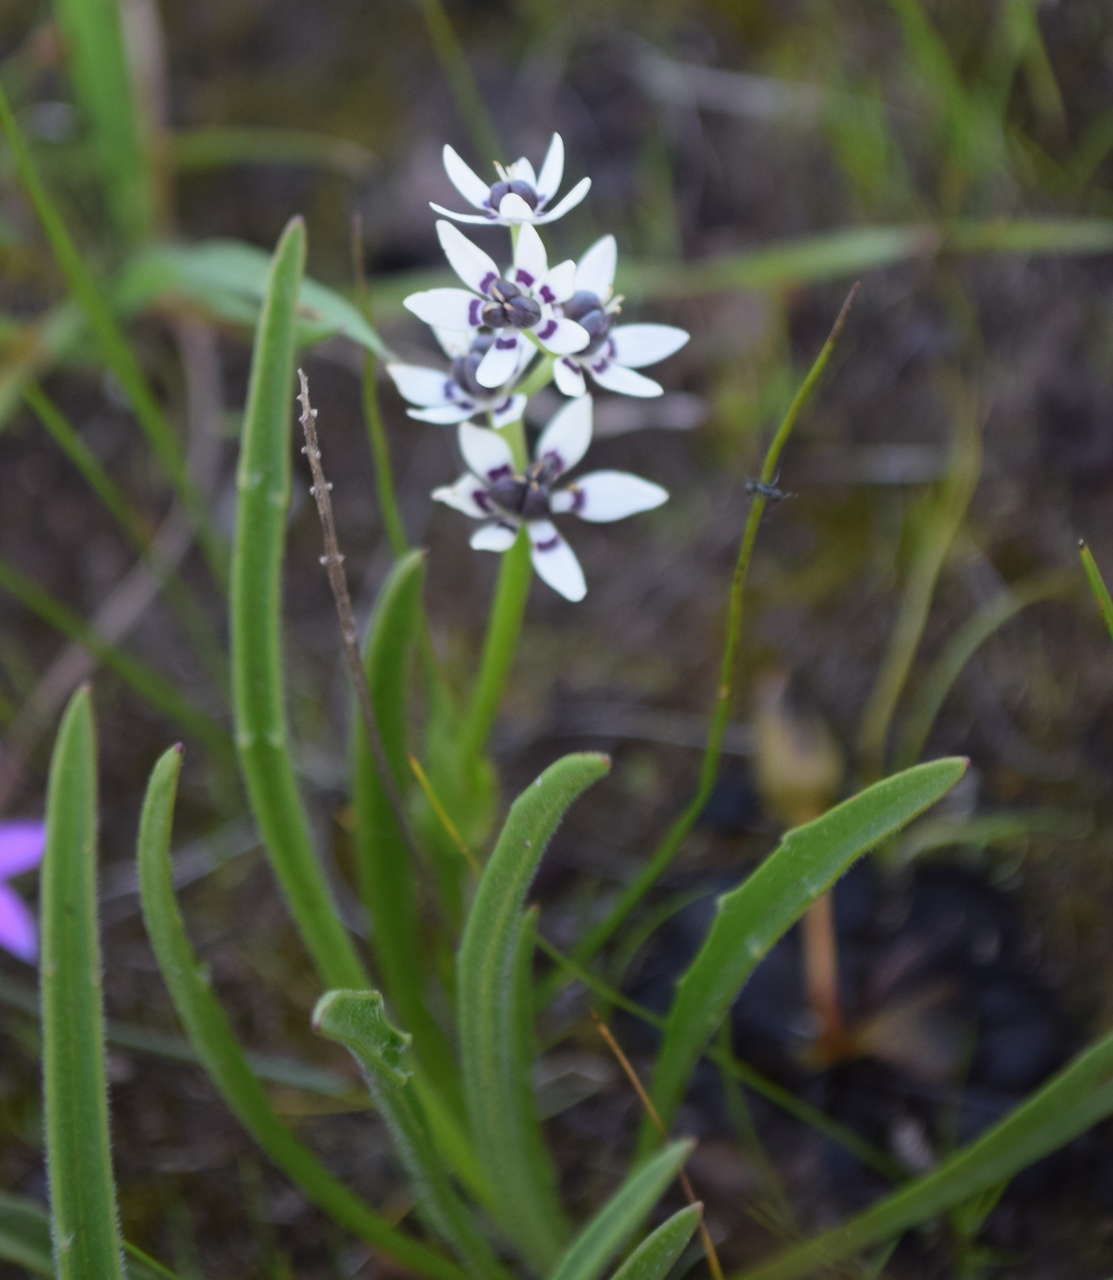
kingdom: Plantae
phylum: Tracheophyta
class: Liliopsida
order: Liliales
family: Colchicaceae
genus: Wurmbea
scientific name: Wurmbea dioica
